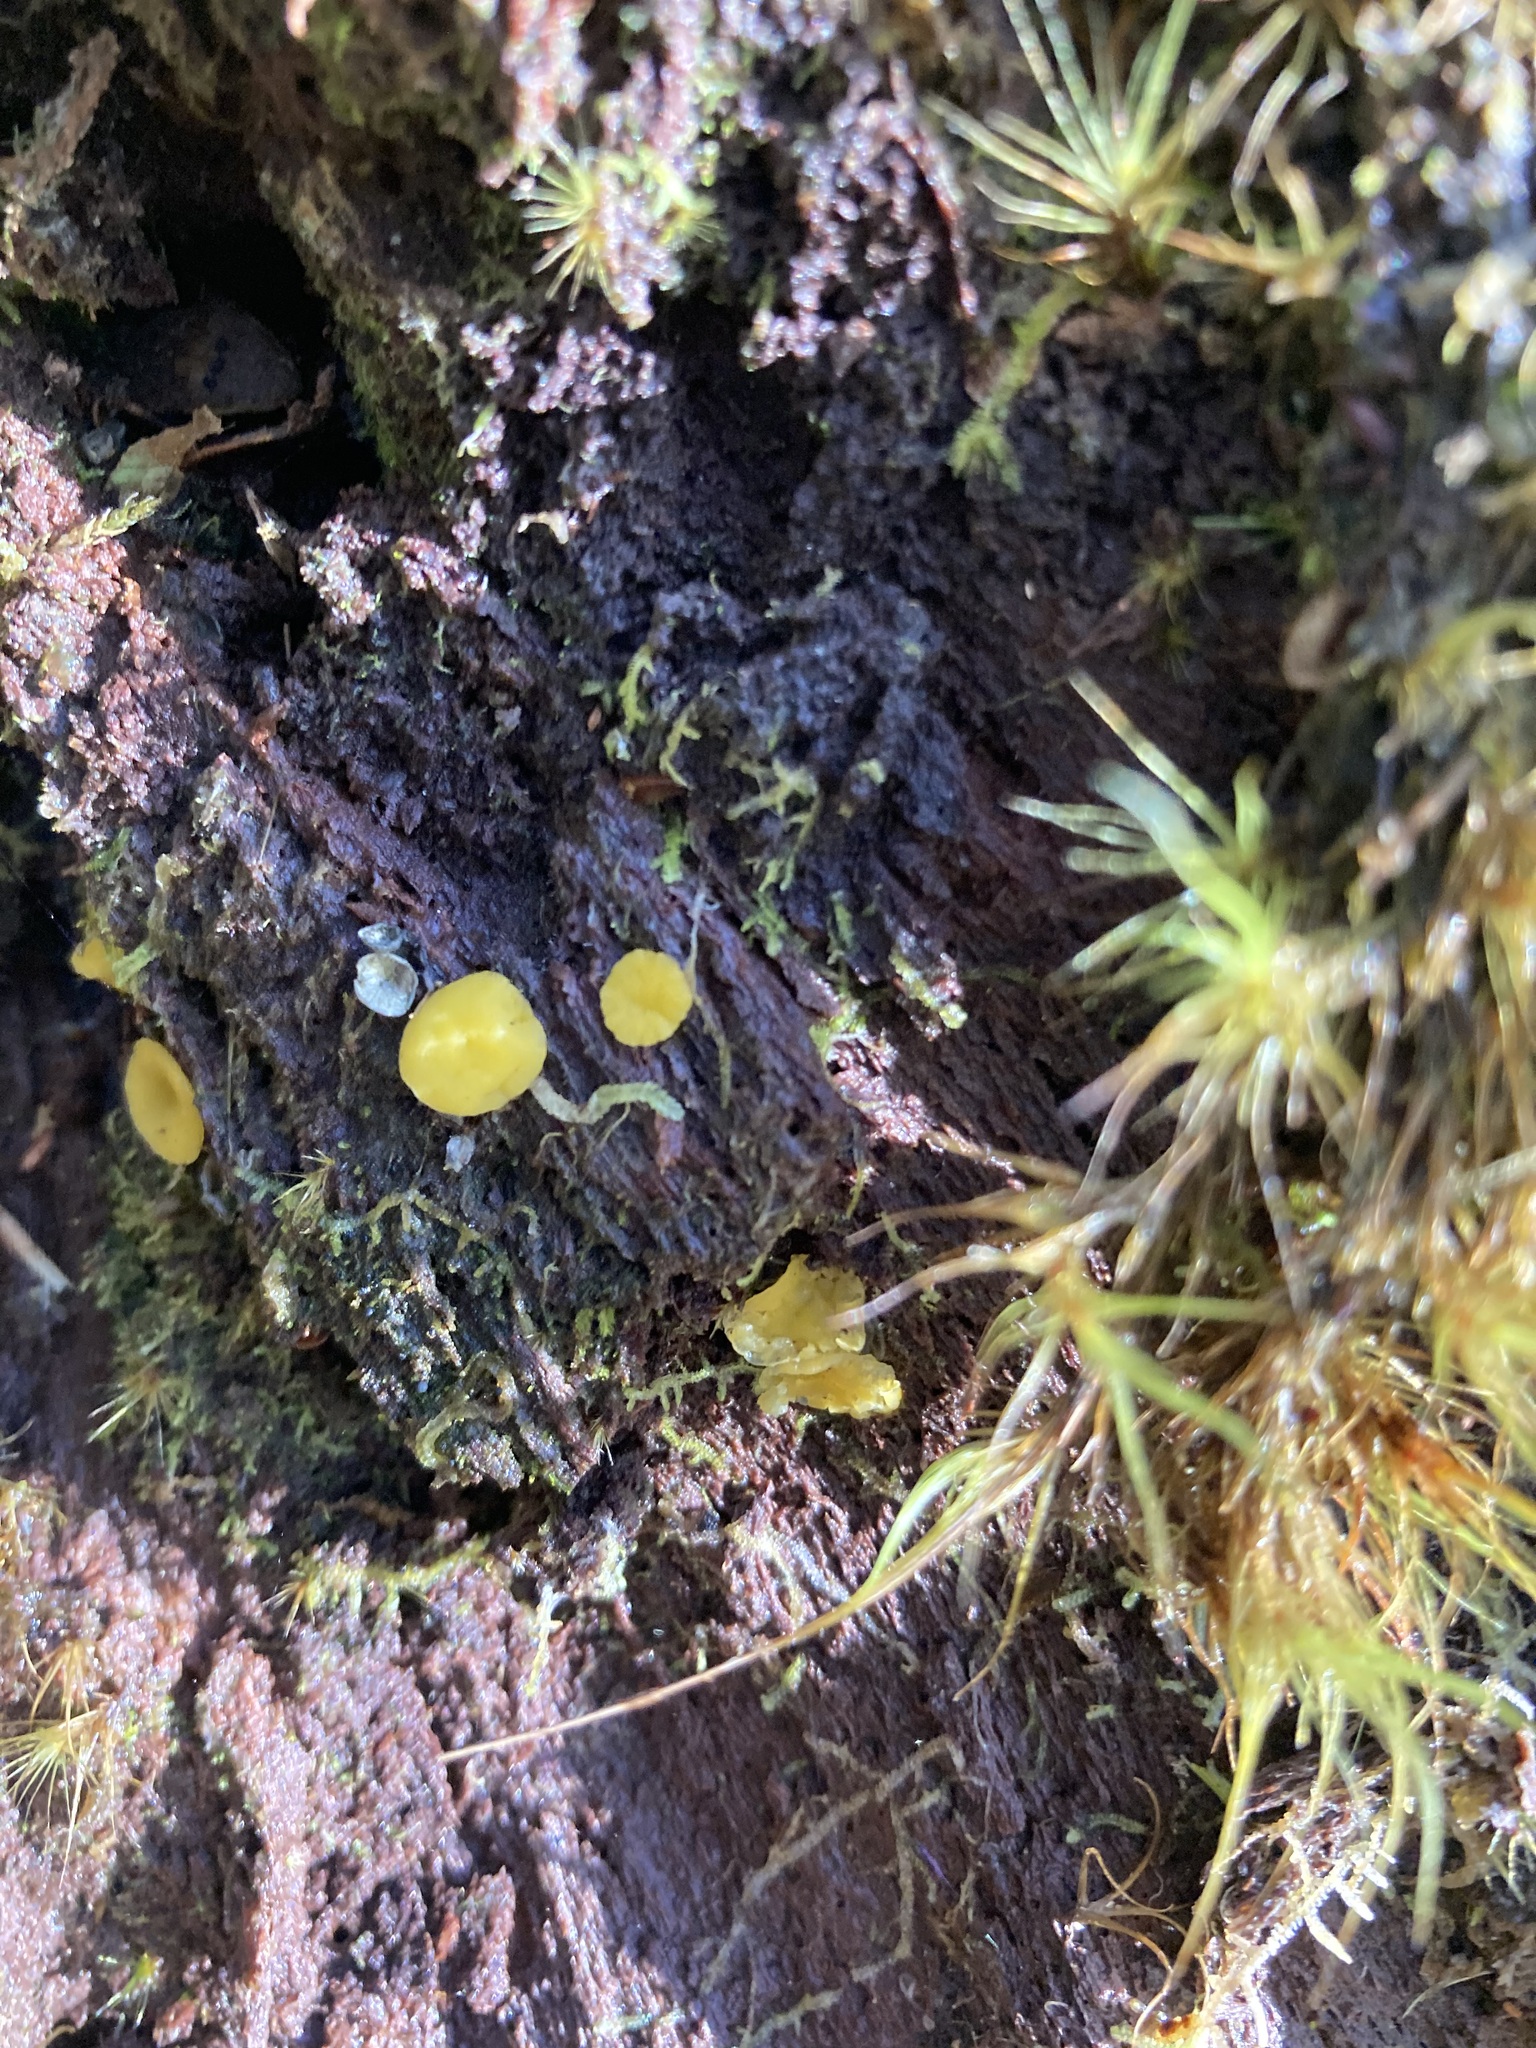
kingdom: Fungi
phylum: Ascomycota
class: Leotiomycetes
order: Helotiales
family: Pezizellaceae
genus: Calycina
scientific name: Calycina citrina
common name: Yellow fairy cups
